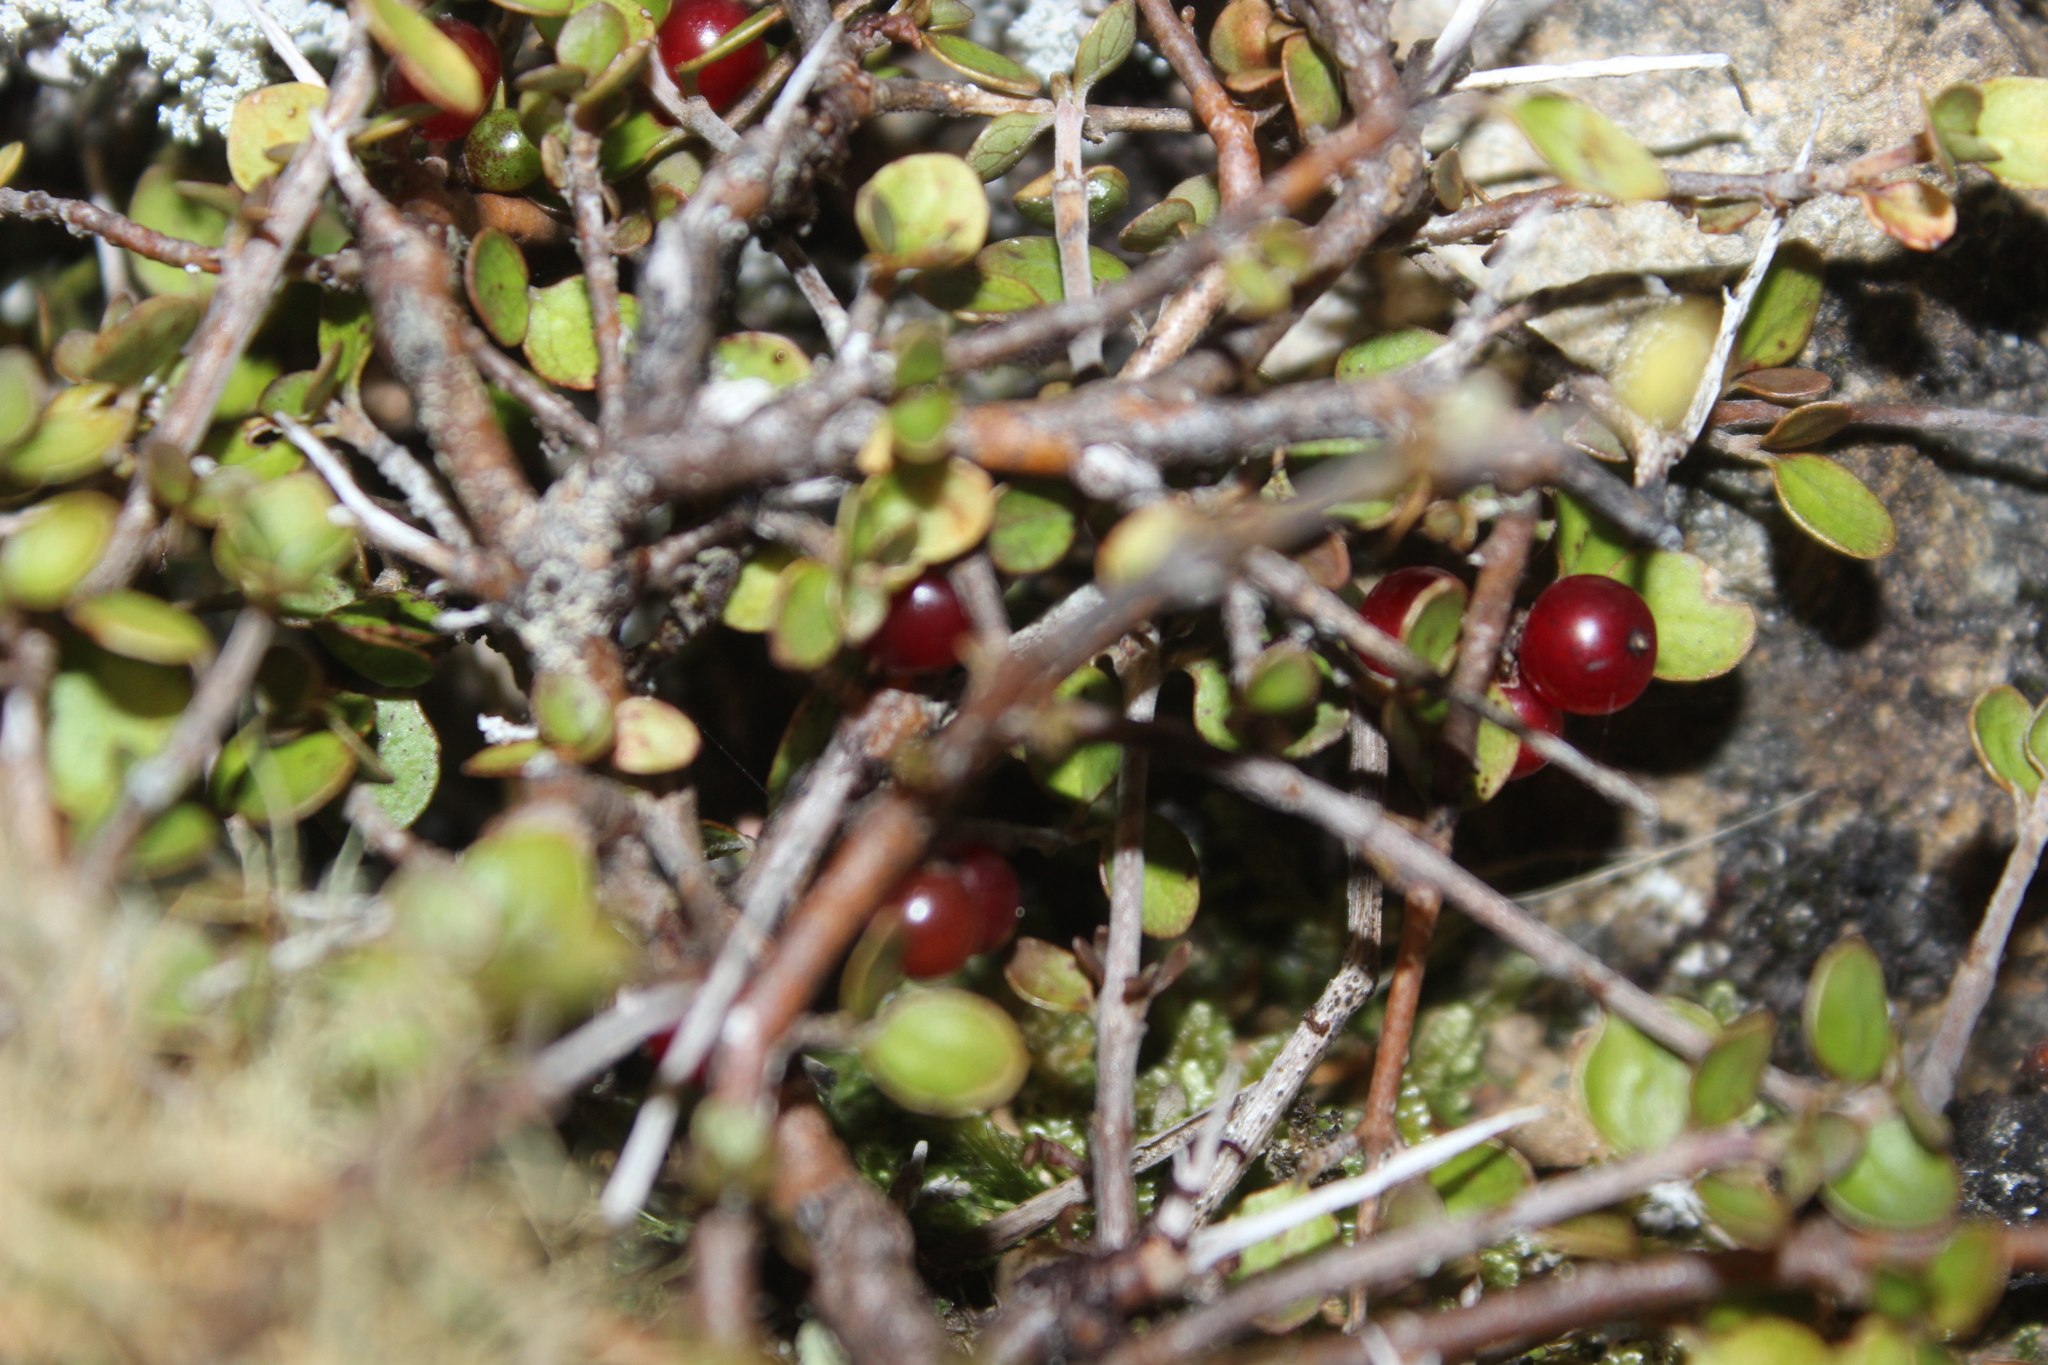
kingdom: Plantae
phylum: Tracheophyta
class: Magnoliopsida
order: Gentianales
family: Rubiaceae
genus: Coprosma
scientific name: Coprosma rhamnoides
